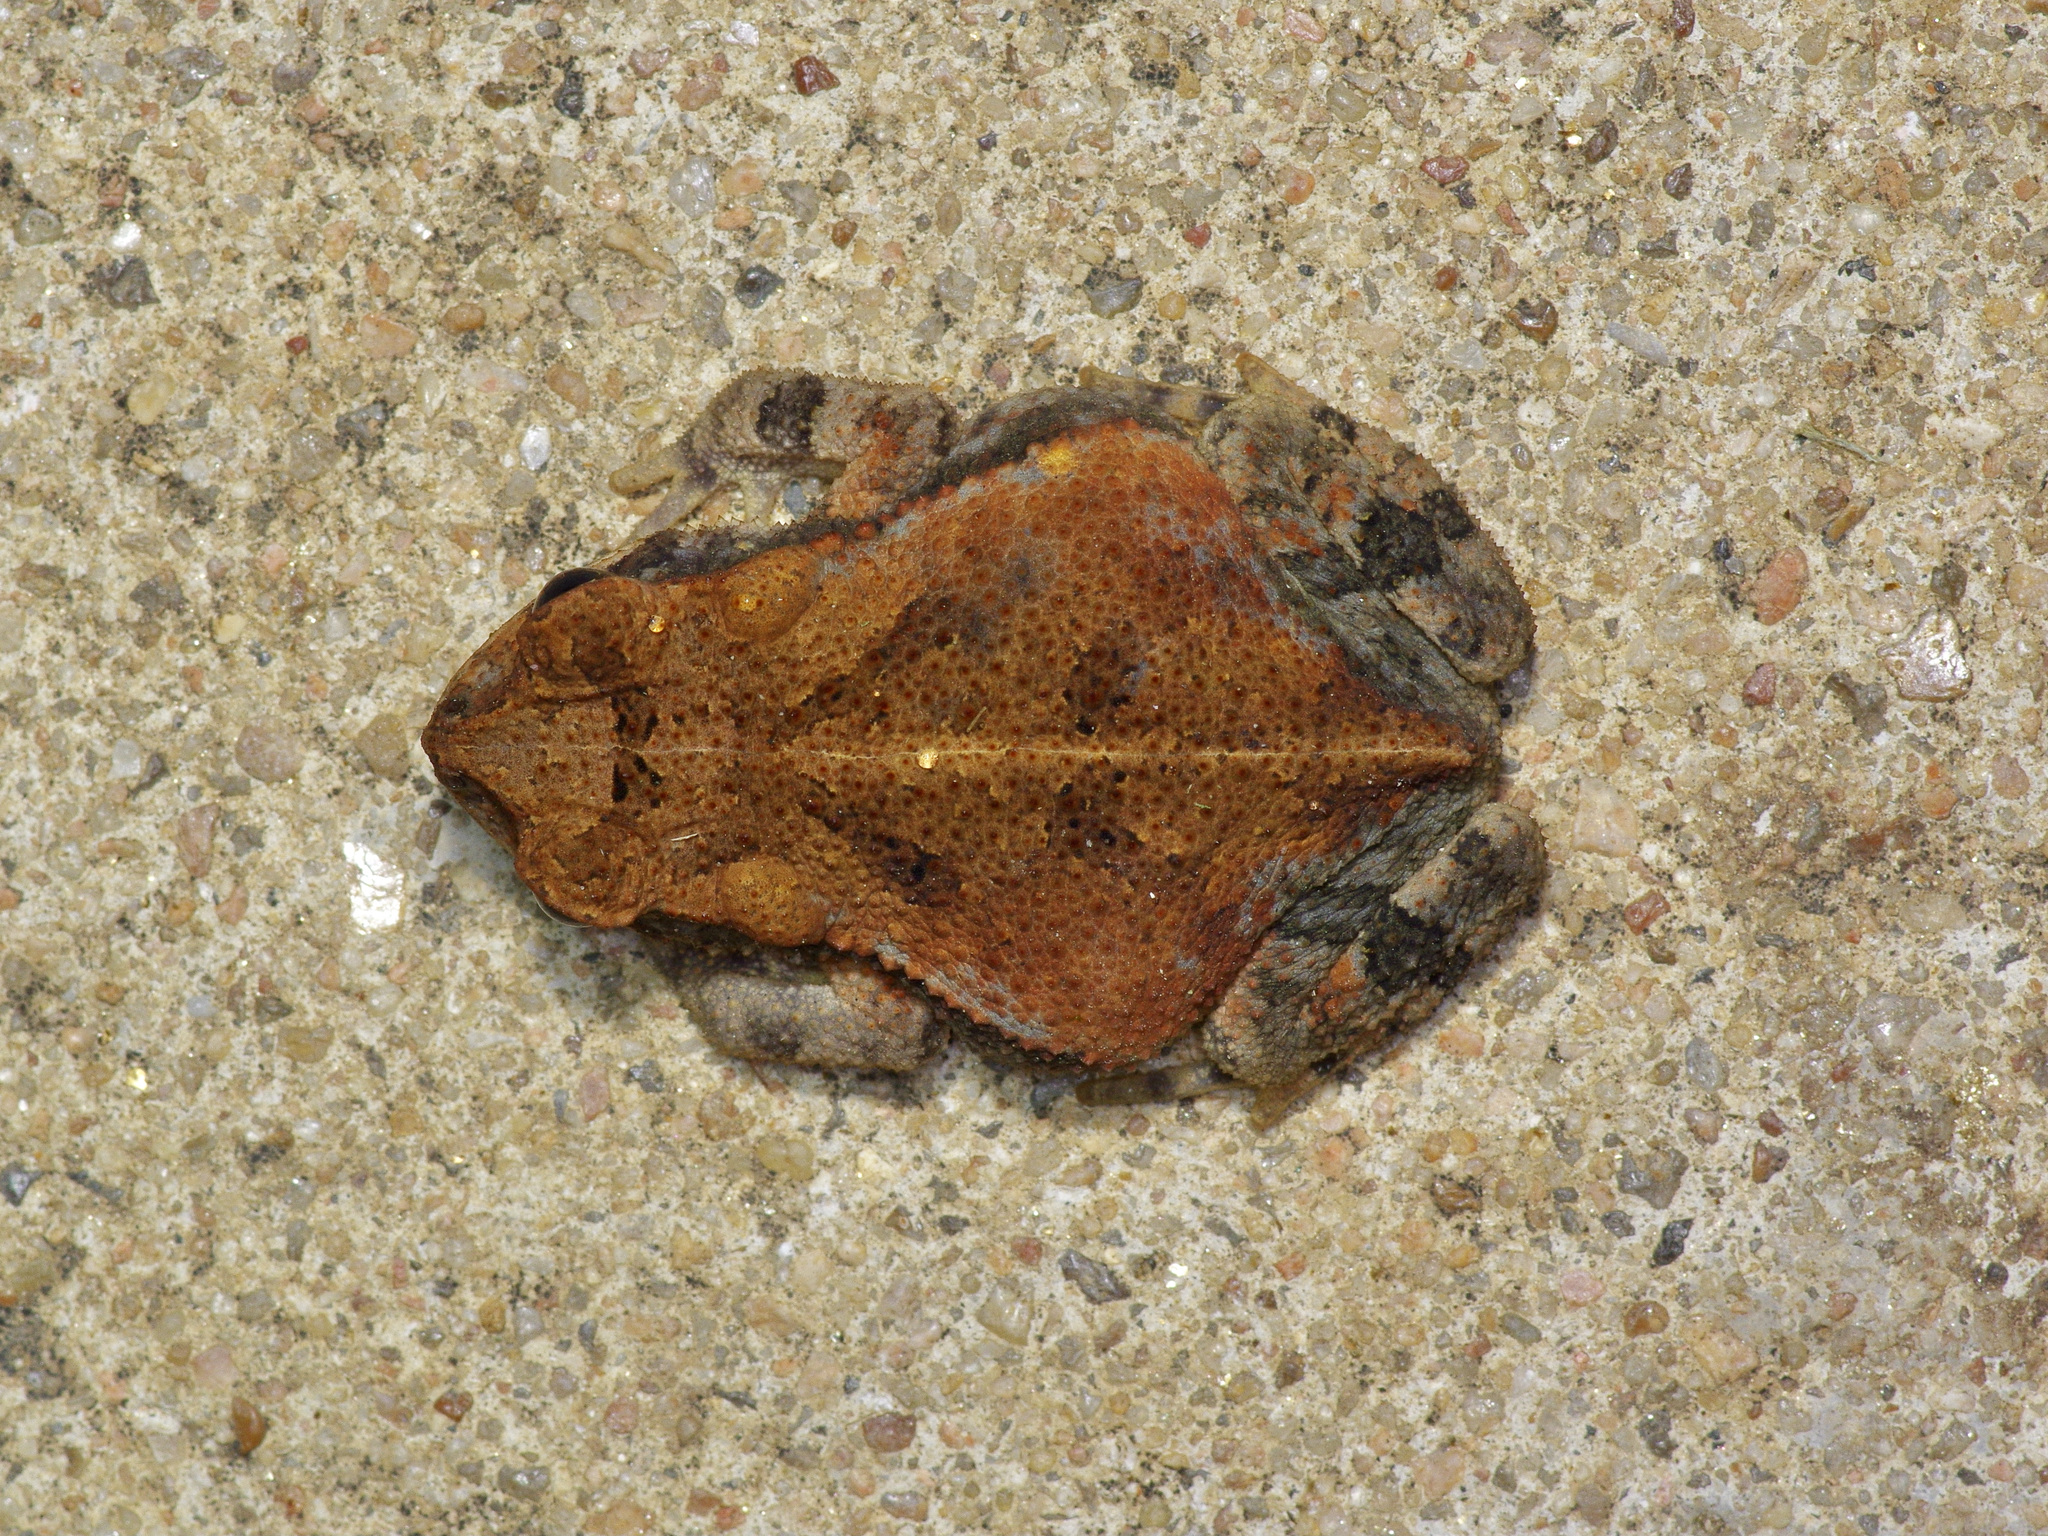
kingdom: Animalia
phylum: Chordata
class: Amphibia
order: Anura
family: Bufonidae
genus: Incilius
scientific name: Incilius nebulifer
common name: Gulf coast toad
